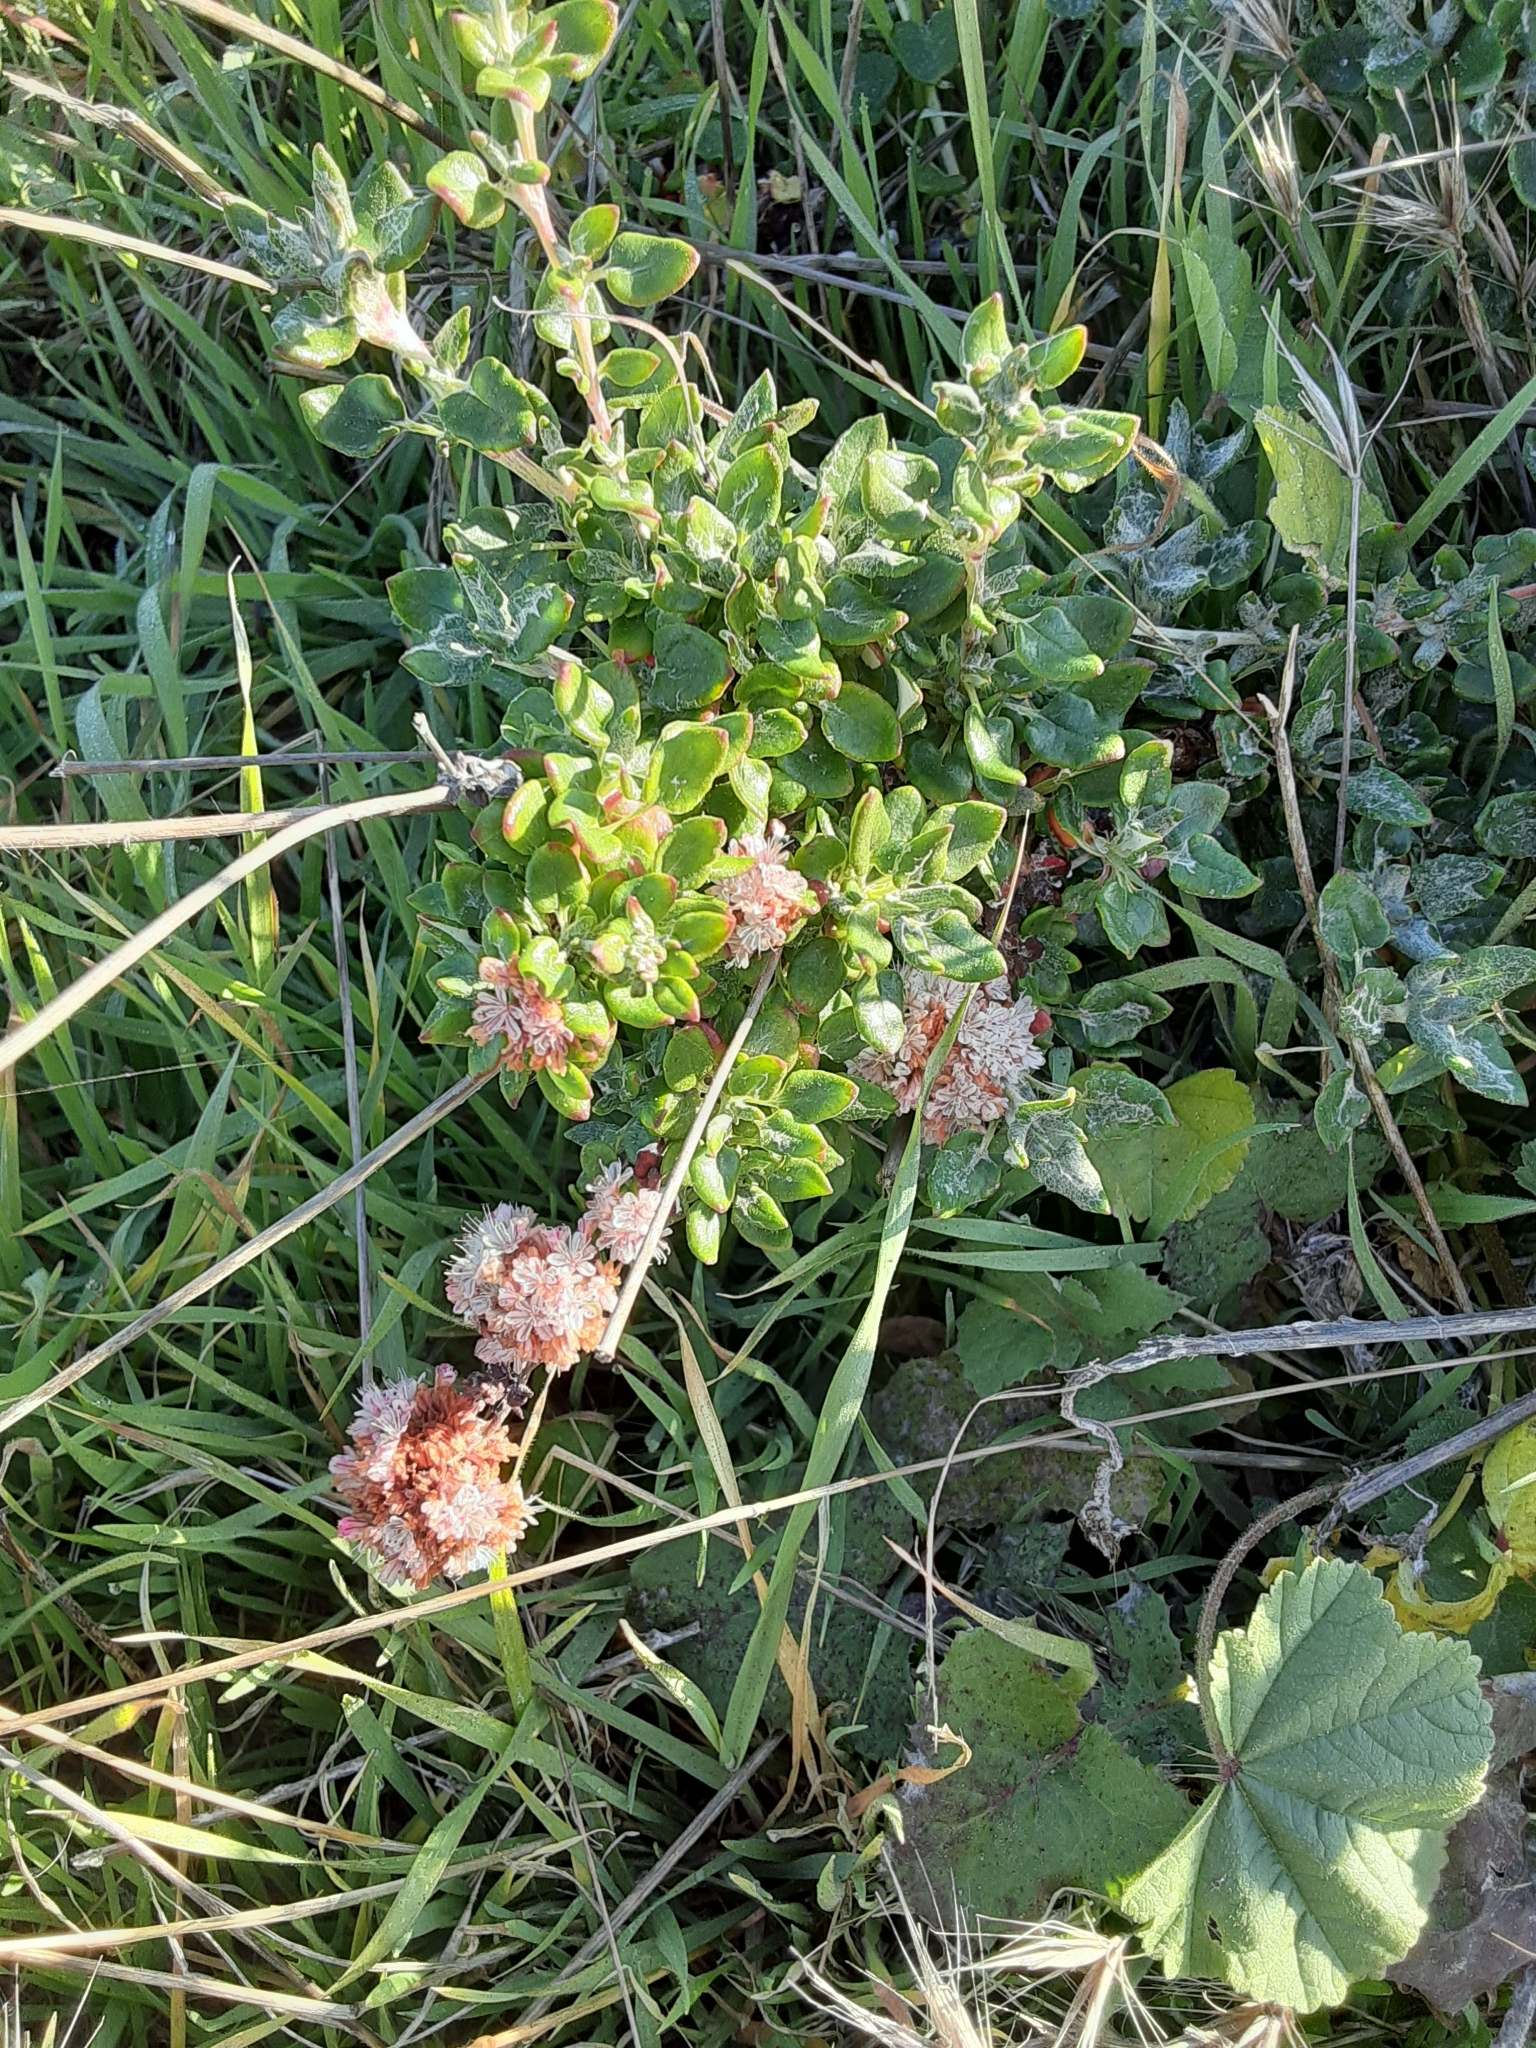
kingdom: Plantae
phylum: Tracheophyta
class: Magnoliopsida
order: Caryophyllales
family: Polygonaceae
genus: Eriogonum
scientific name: Eriogonum parvifolium
